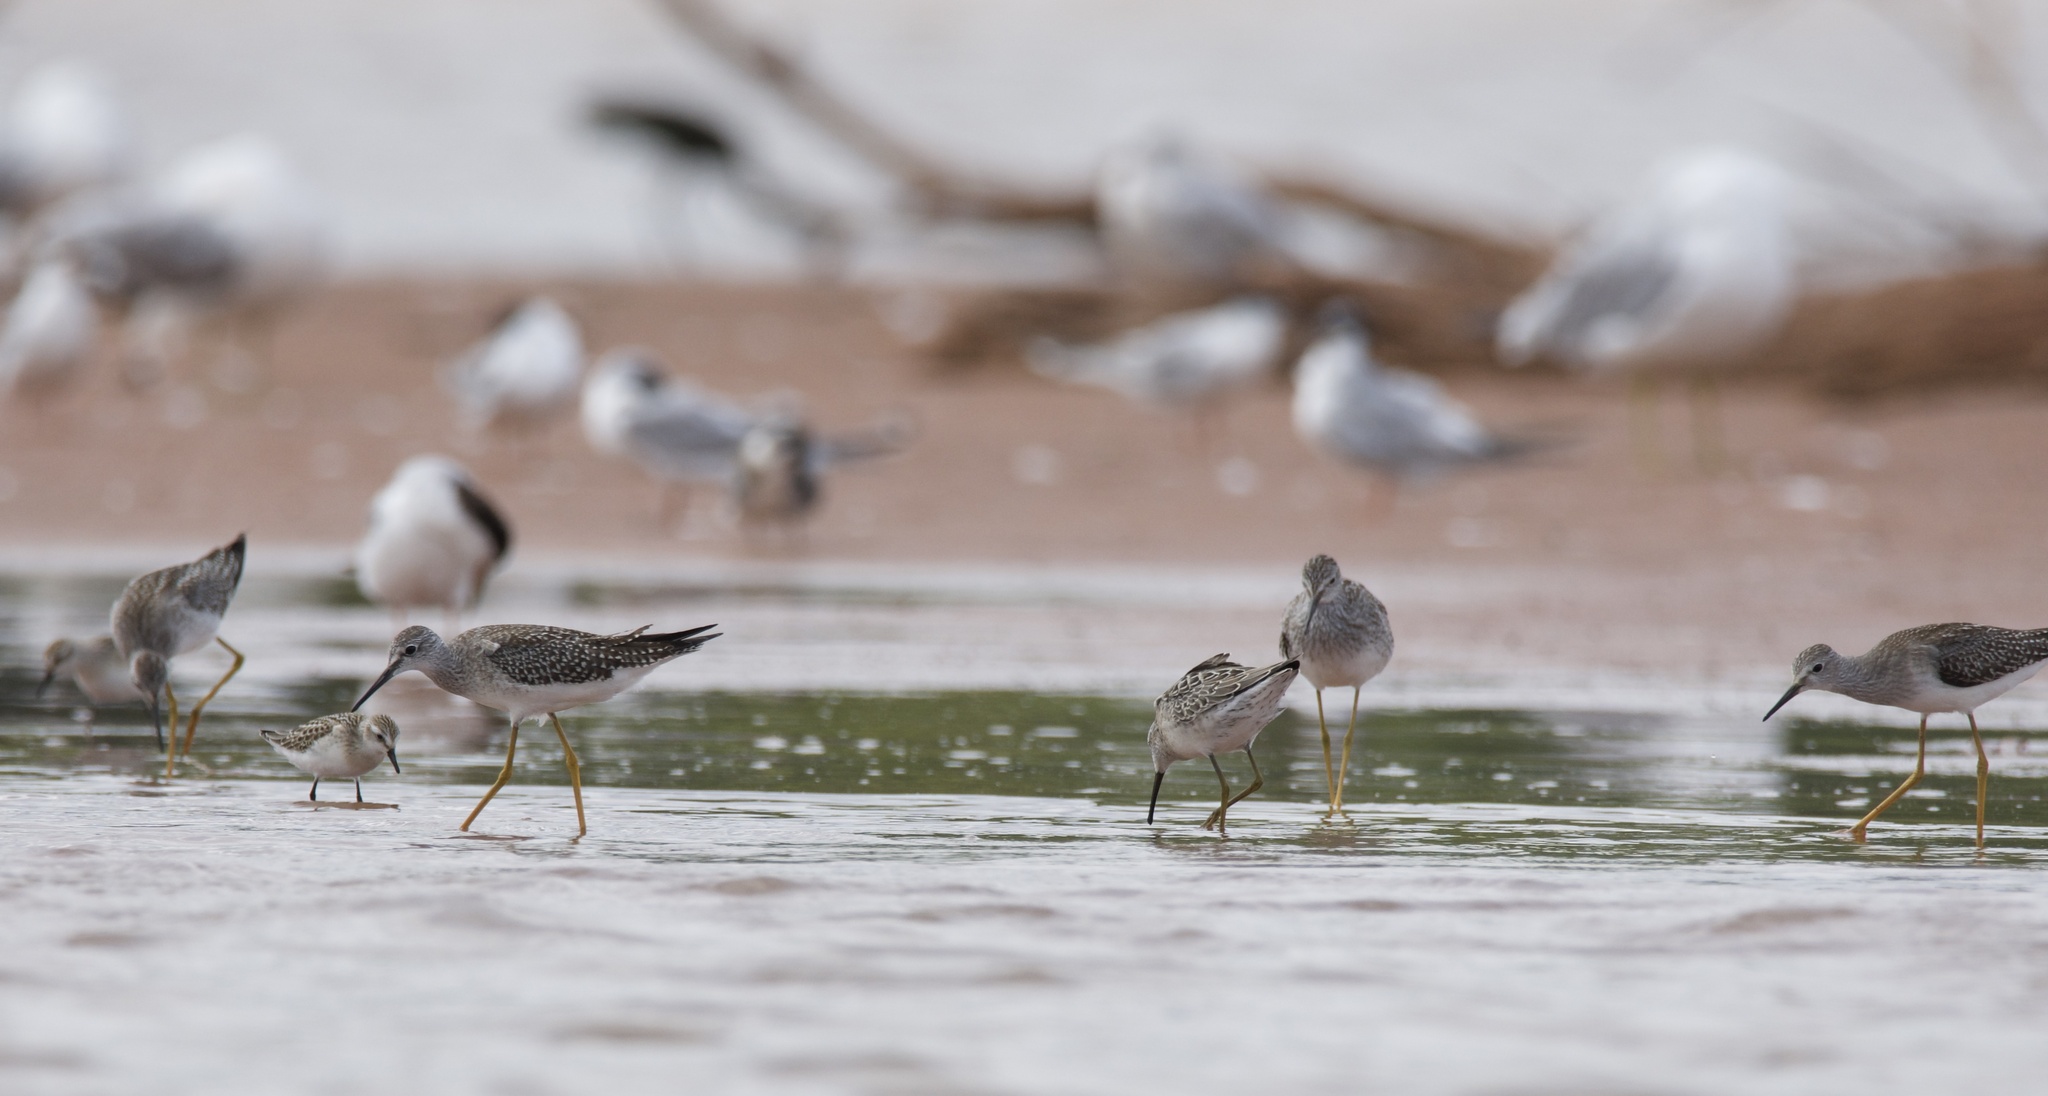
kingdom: Animalia
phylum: Chordata
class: Aves
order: Charadriiformes
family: Scolopacidae
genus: Tringa
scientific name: Tringa flavipes
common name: Lesser yellowlegs
